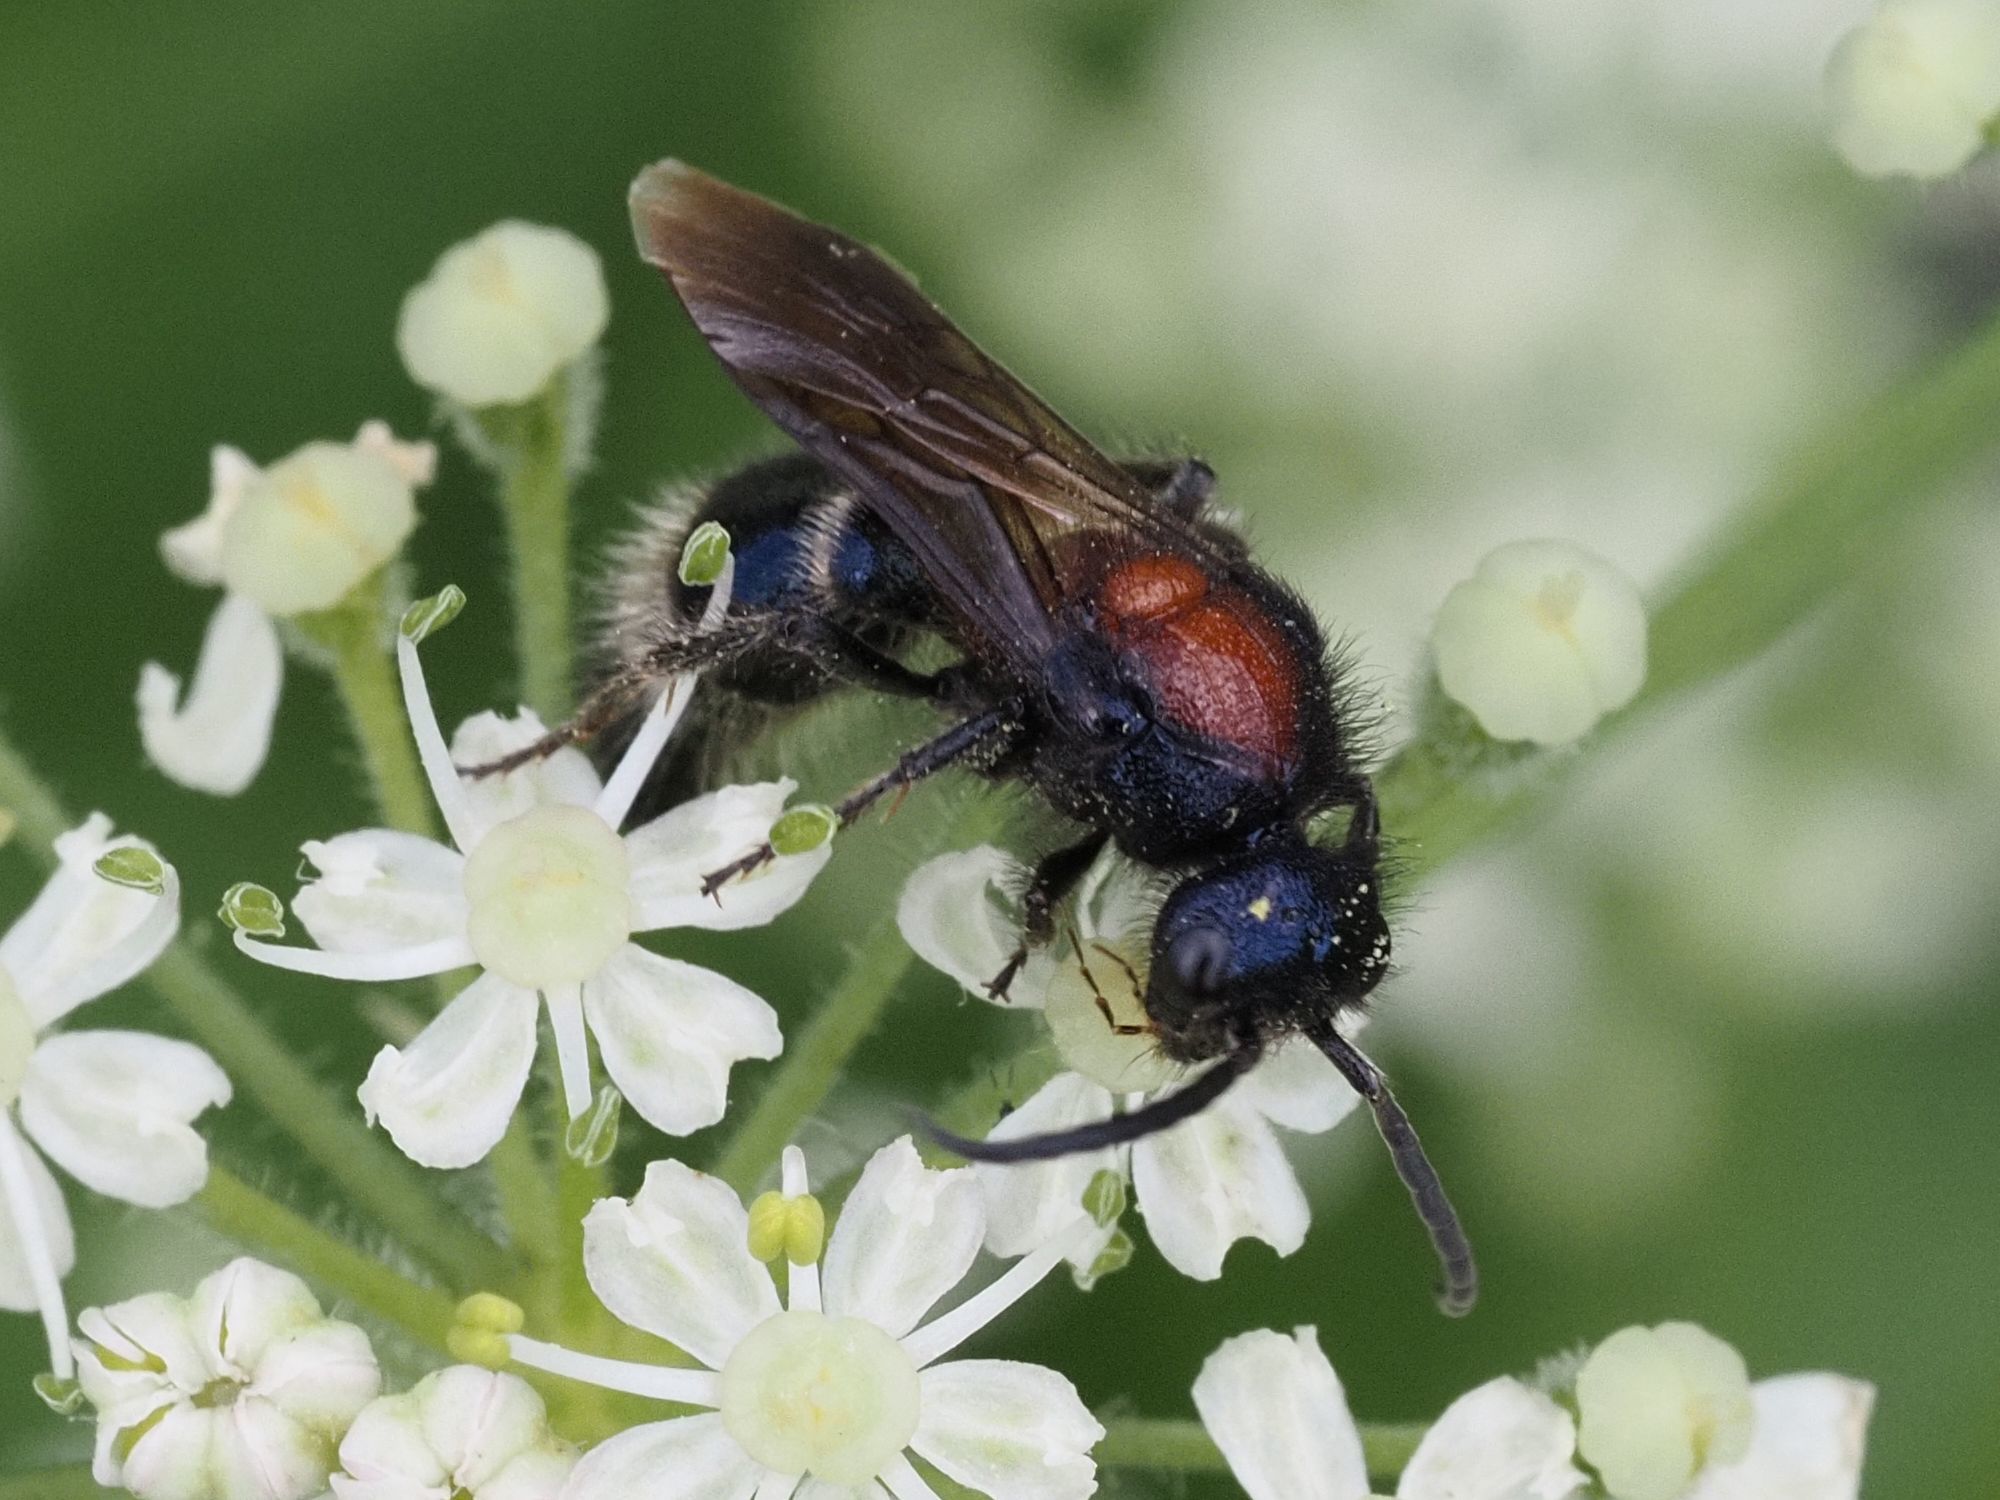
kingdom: Animalia
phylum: Arthropoda
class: Insecta
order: Hymenoptera
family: Mutillidae
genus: Mutilla
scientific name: Mutilla europaea
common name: Large velvet ant
